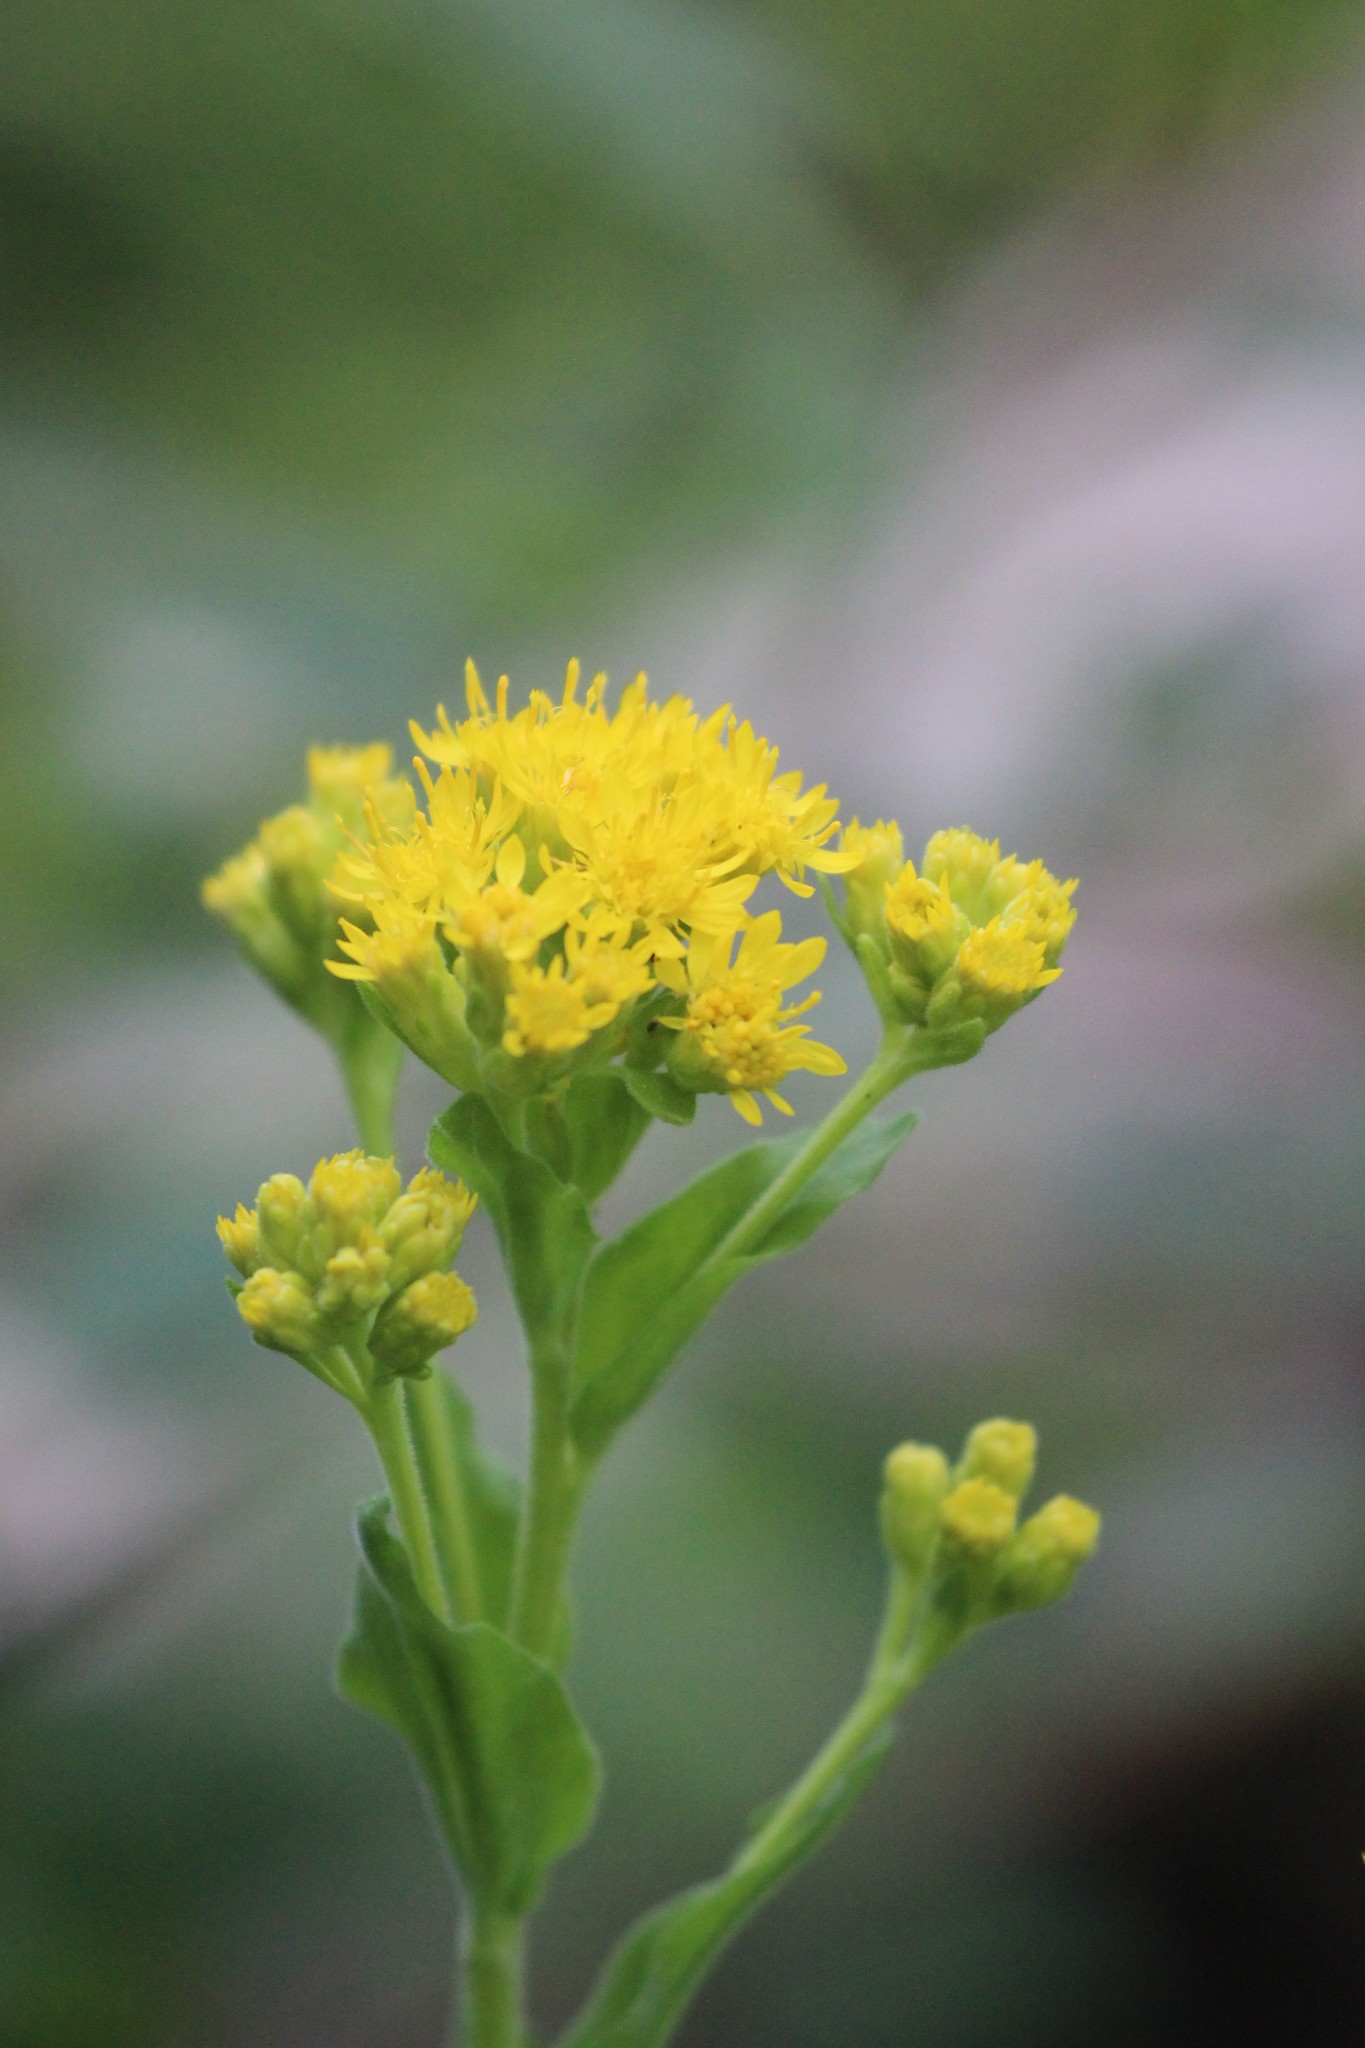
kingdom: Plantae
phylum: Tracheophyta
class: Magnoliopsida
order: Asterales
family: Asteraceae
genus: Solidago
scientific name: Solidago rigida
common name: Rigid goldenrod
